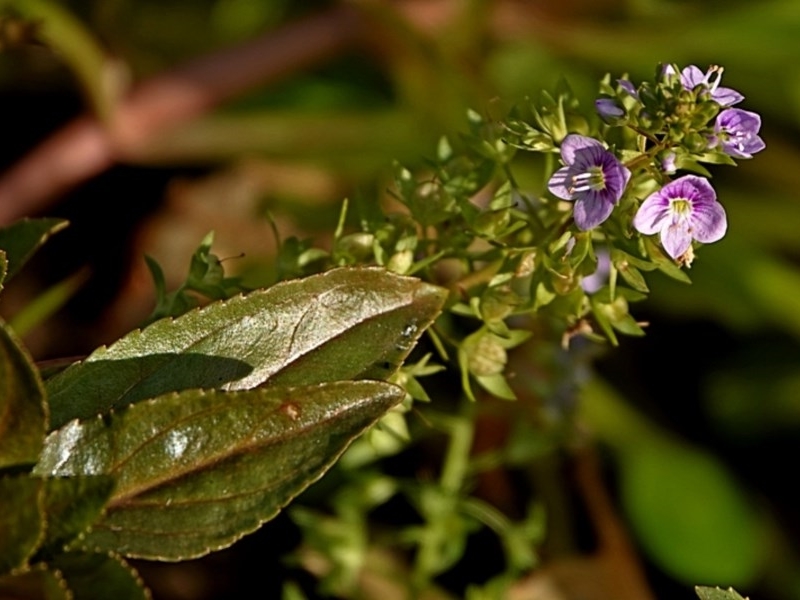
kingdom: Plantae
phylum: Tracheophyta
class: Magnoliopsida
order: Lamiales
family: Plantaginaceae
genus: Veronica
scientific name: Veronica anagallis-aquatica
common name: Water speedwell
